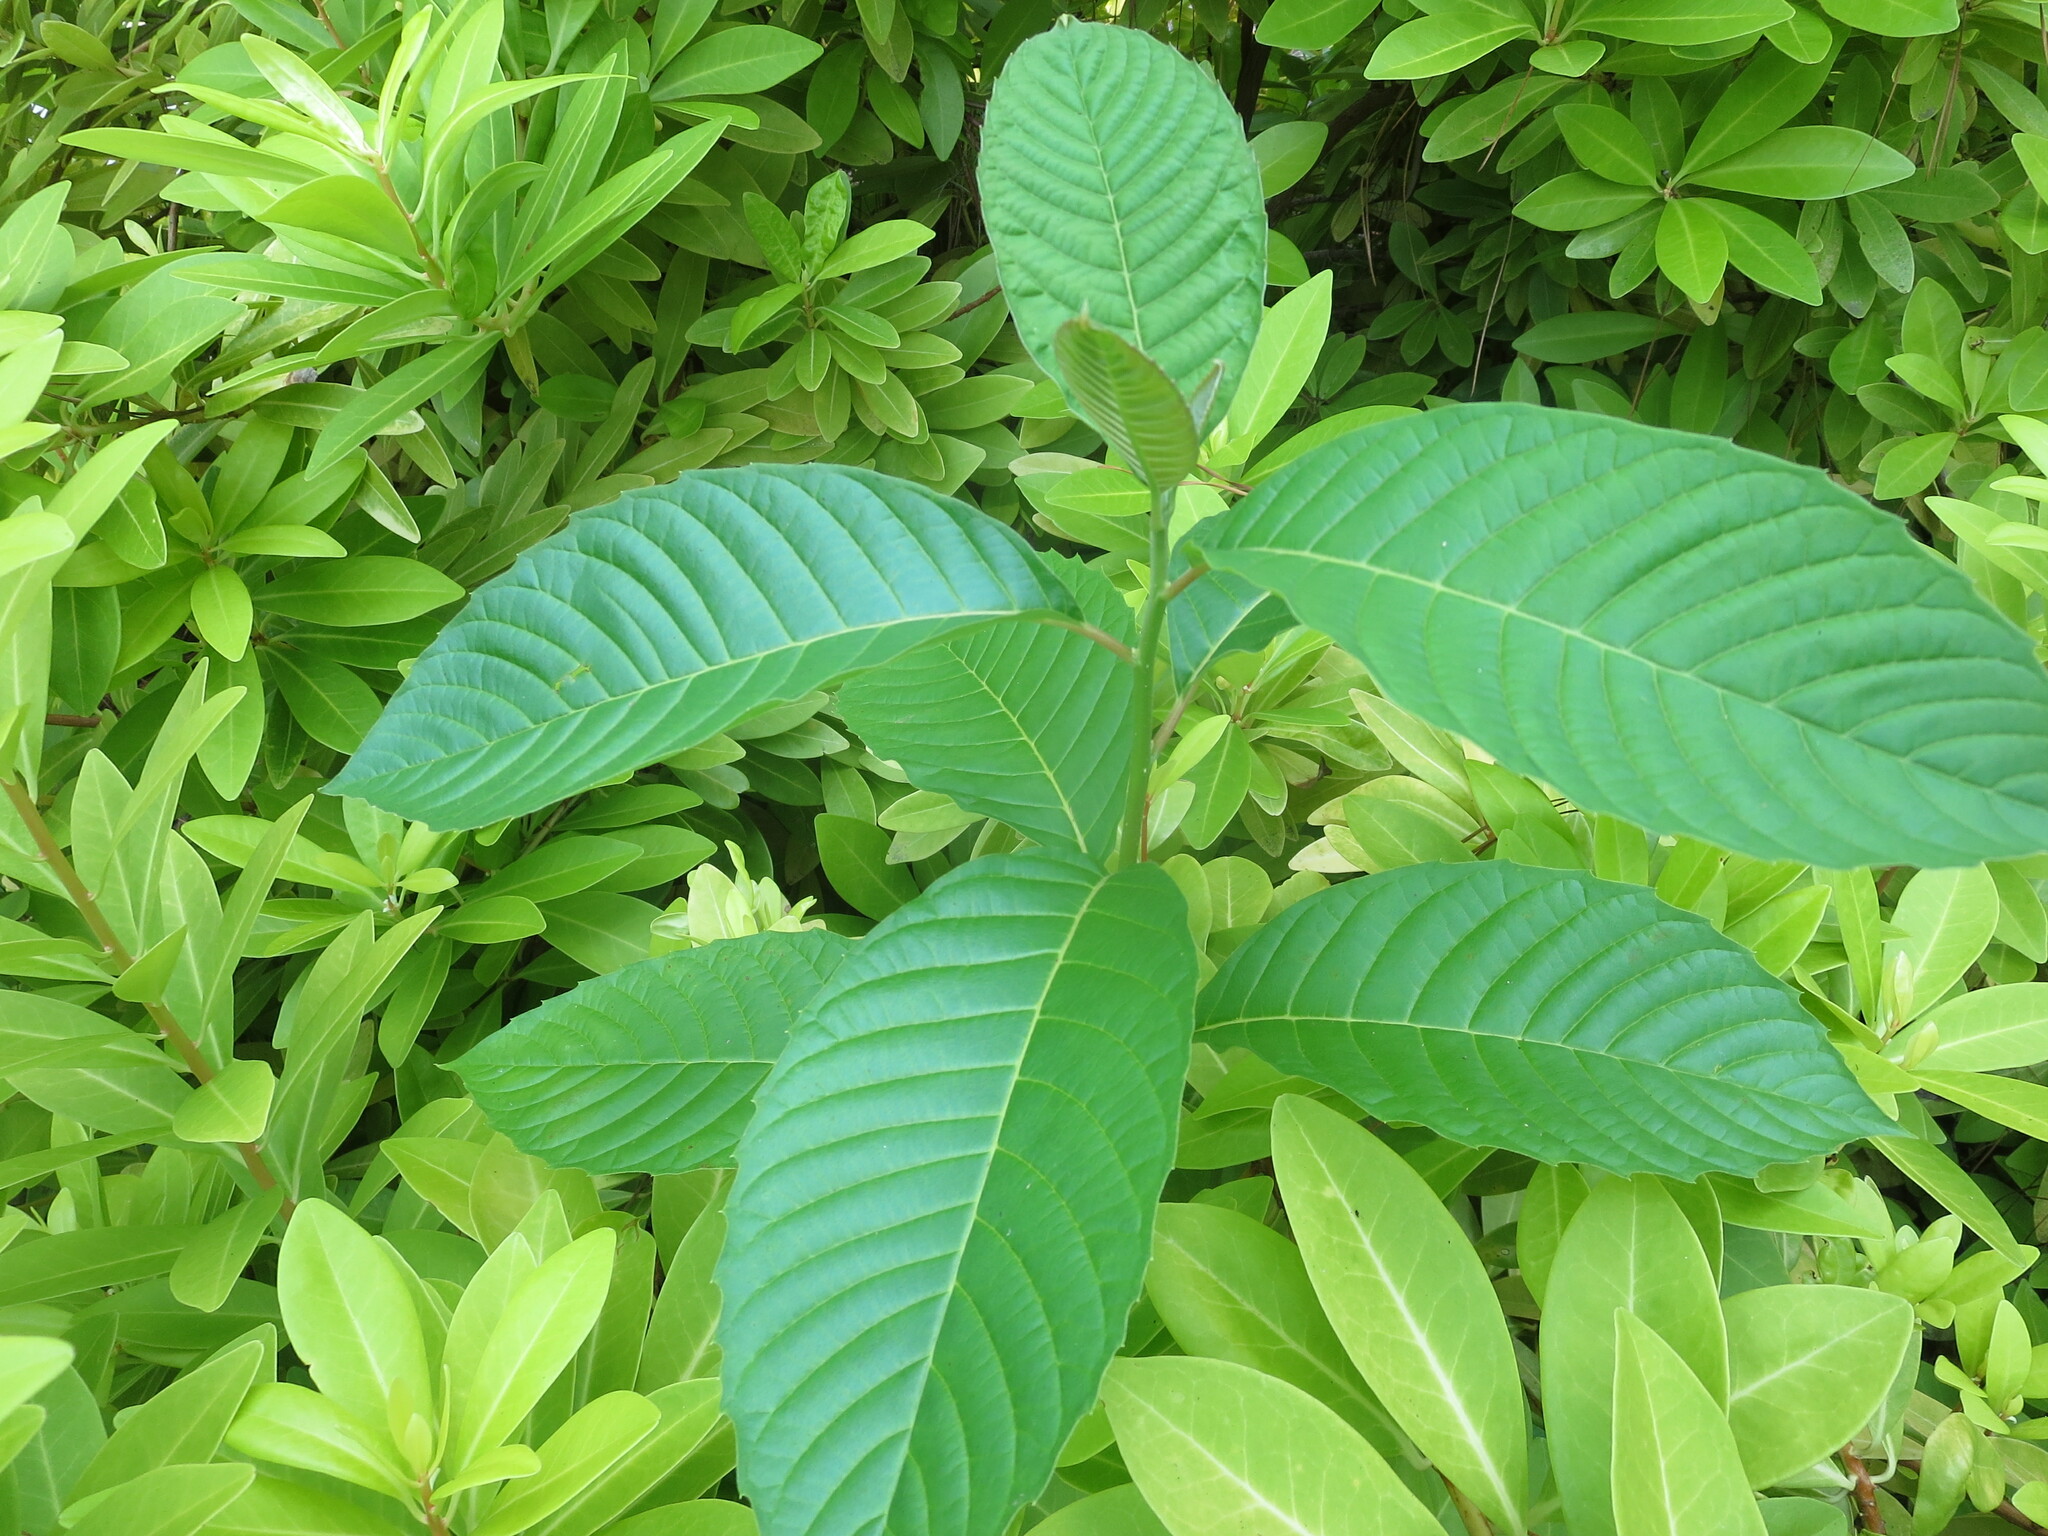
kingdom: Plantae
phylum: Tracheophyta
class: Magnoliopsida
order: Cornales
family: Nyssaceae
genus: Camptotheca
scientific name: Camptotheca acuminata
